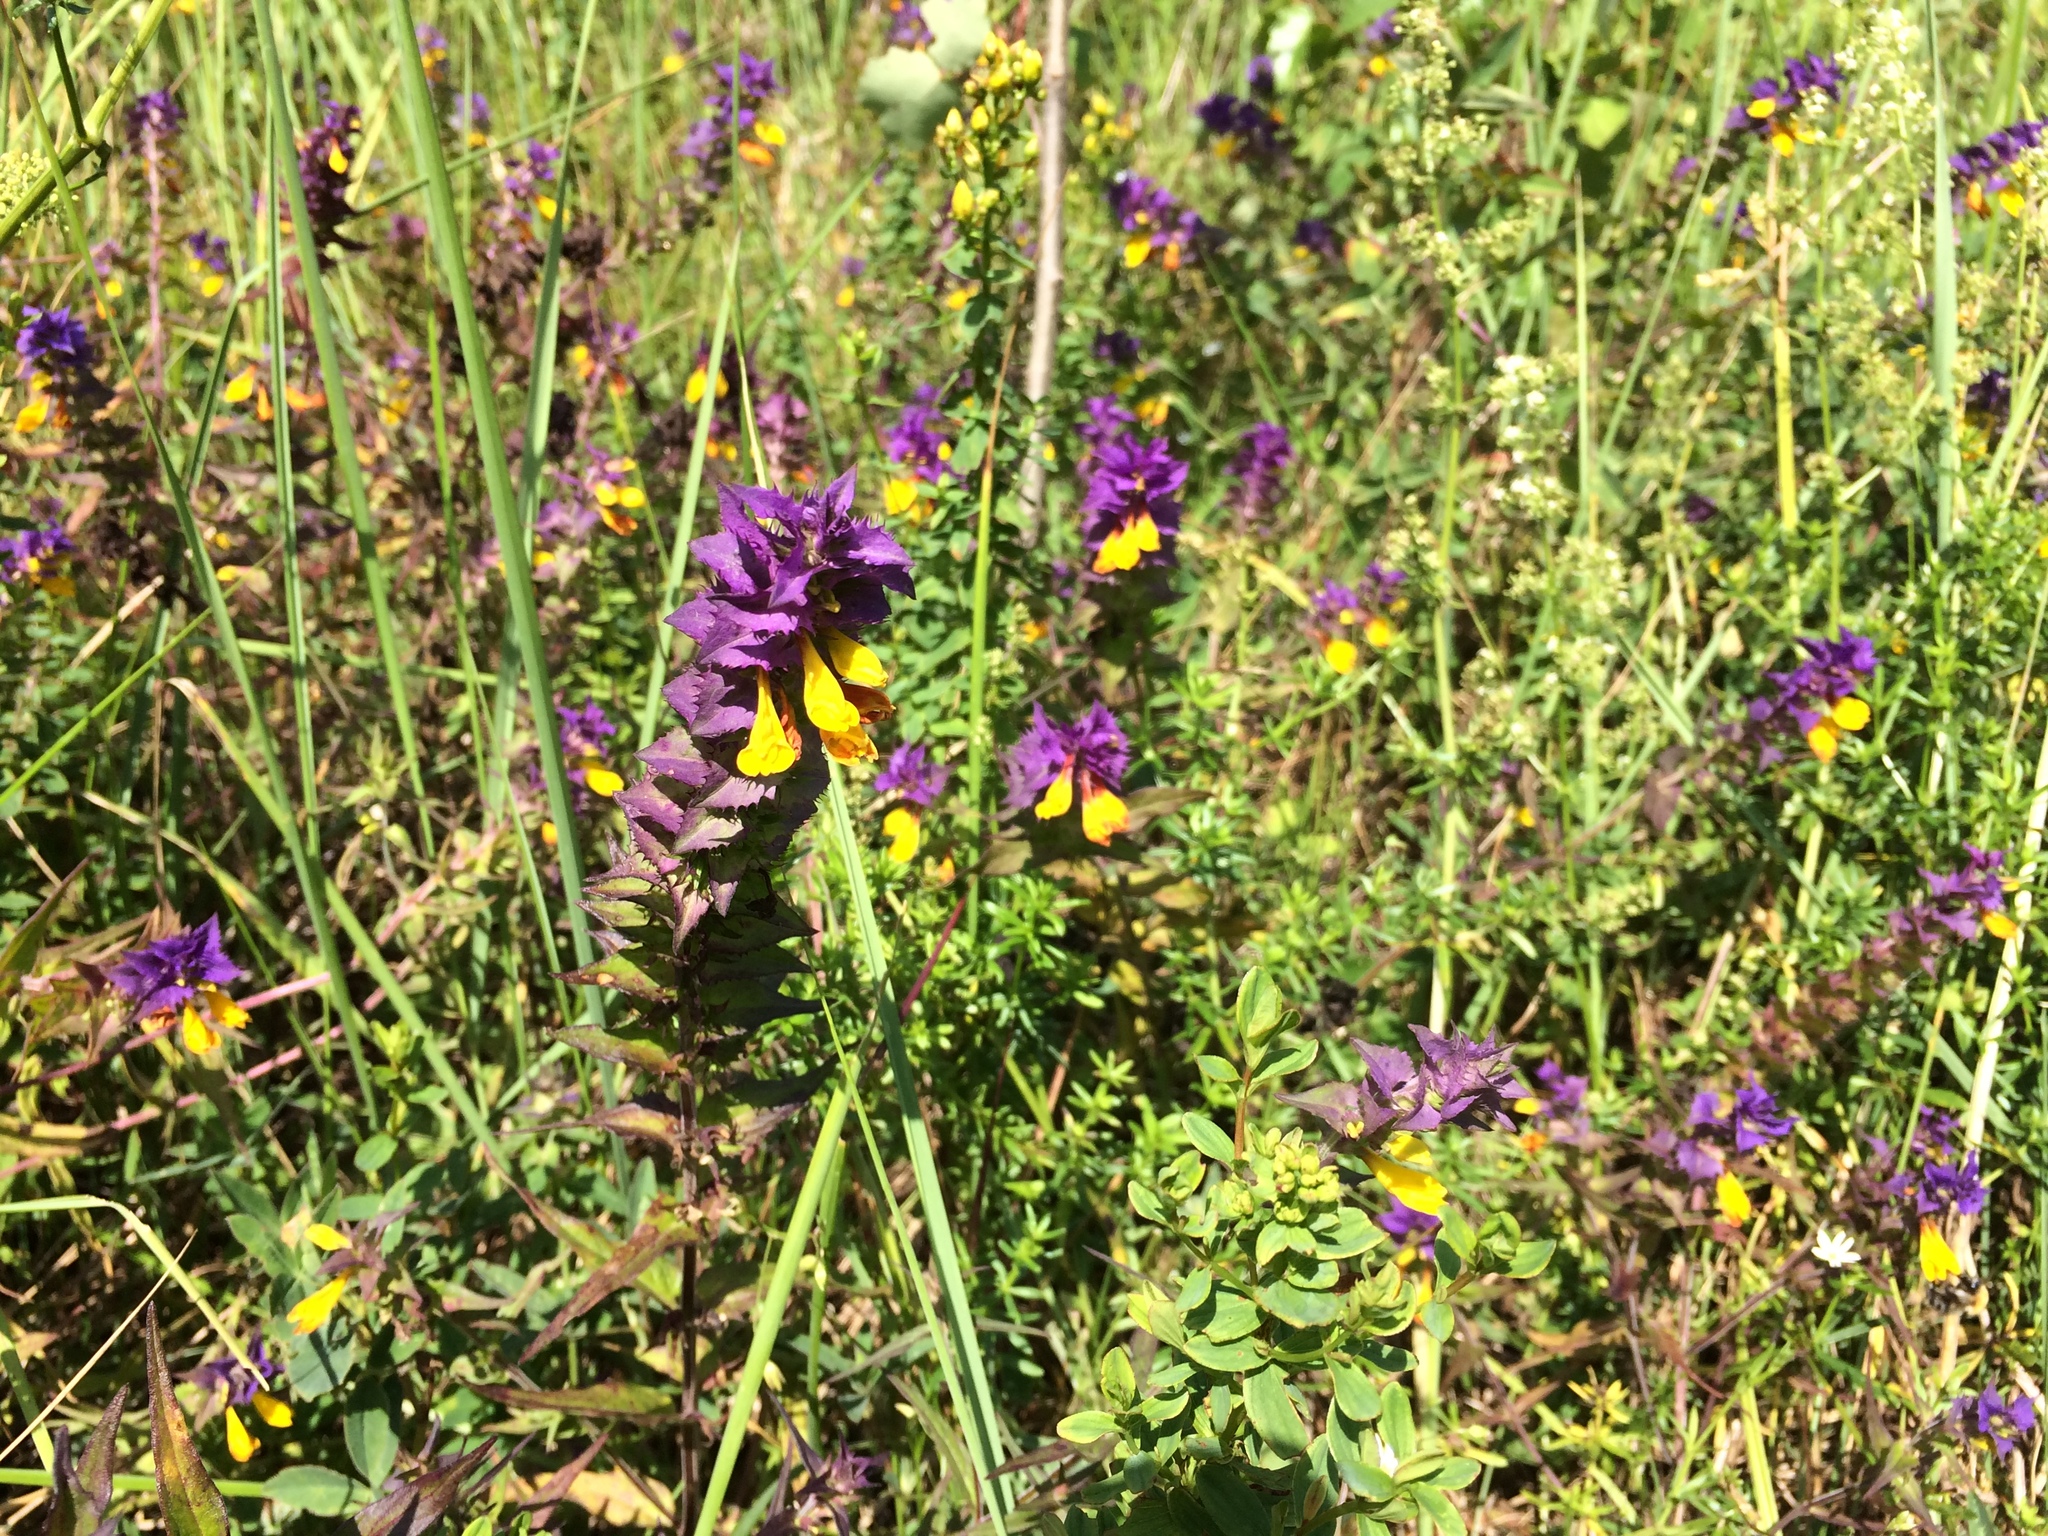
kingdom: Plantae
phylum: Tracheophyta
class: Magnoliopsida
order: Lamiales
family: Orobanchaceae
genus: Melampyrum
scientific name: Melampyrum nemorosum
